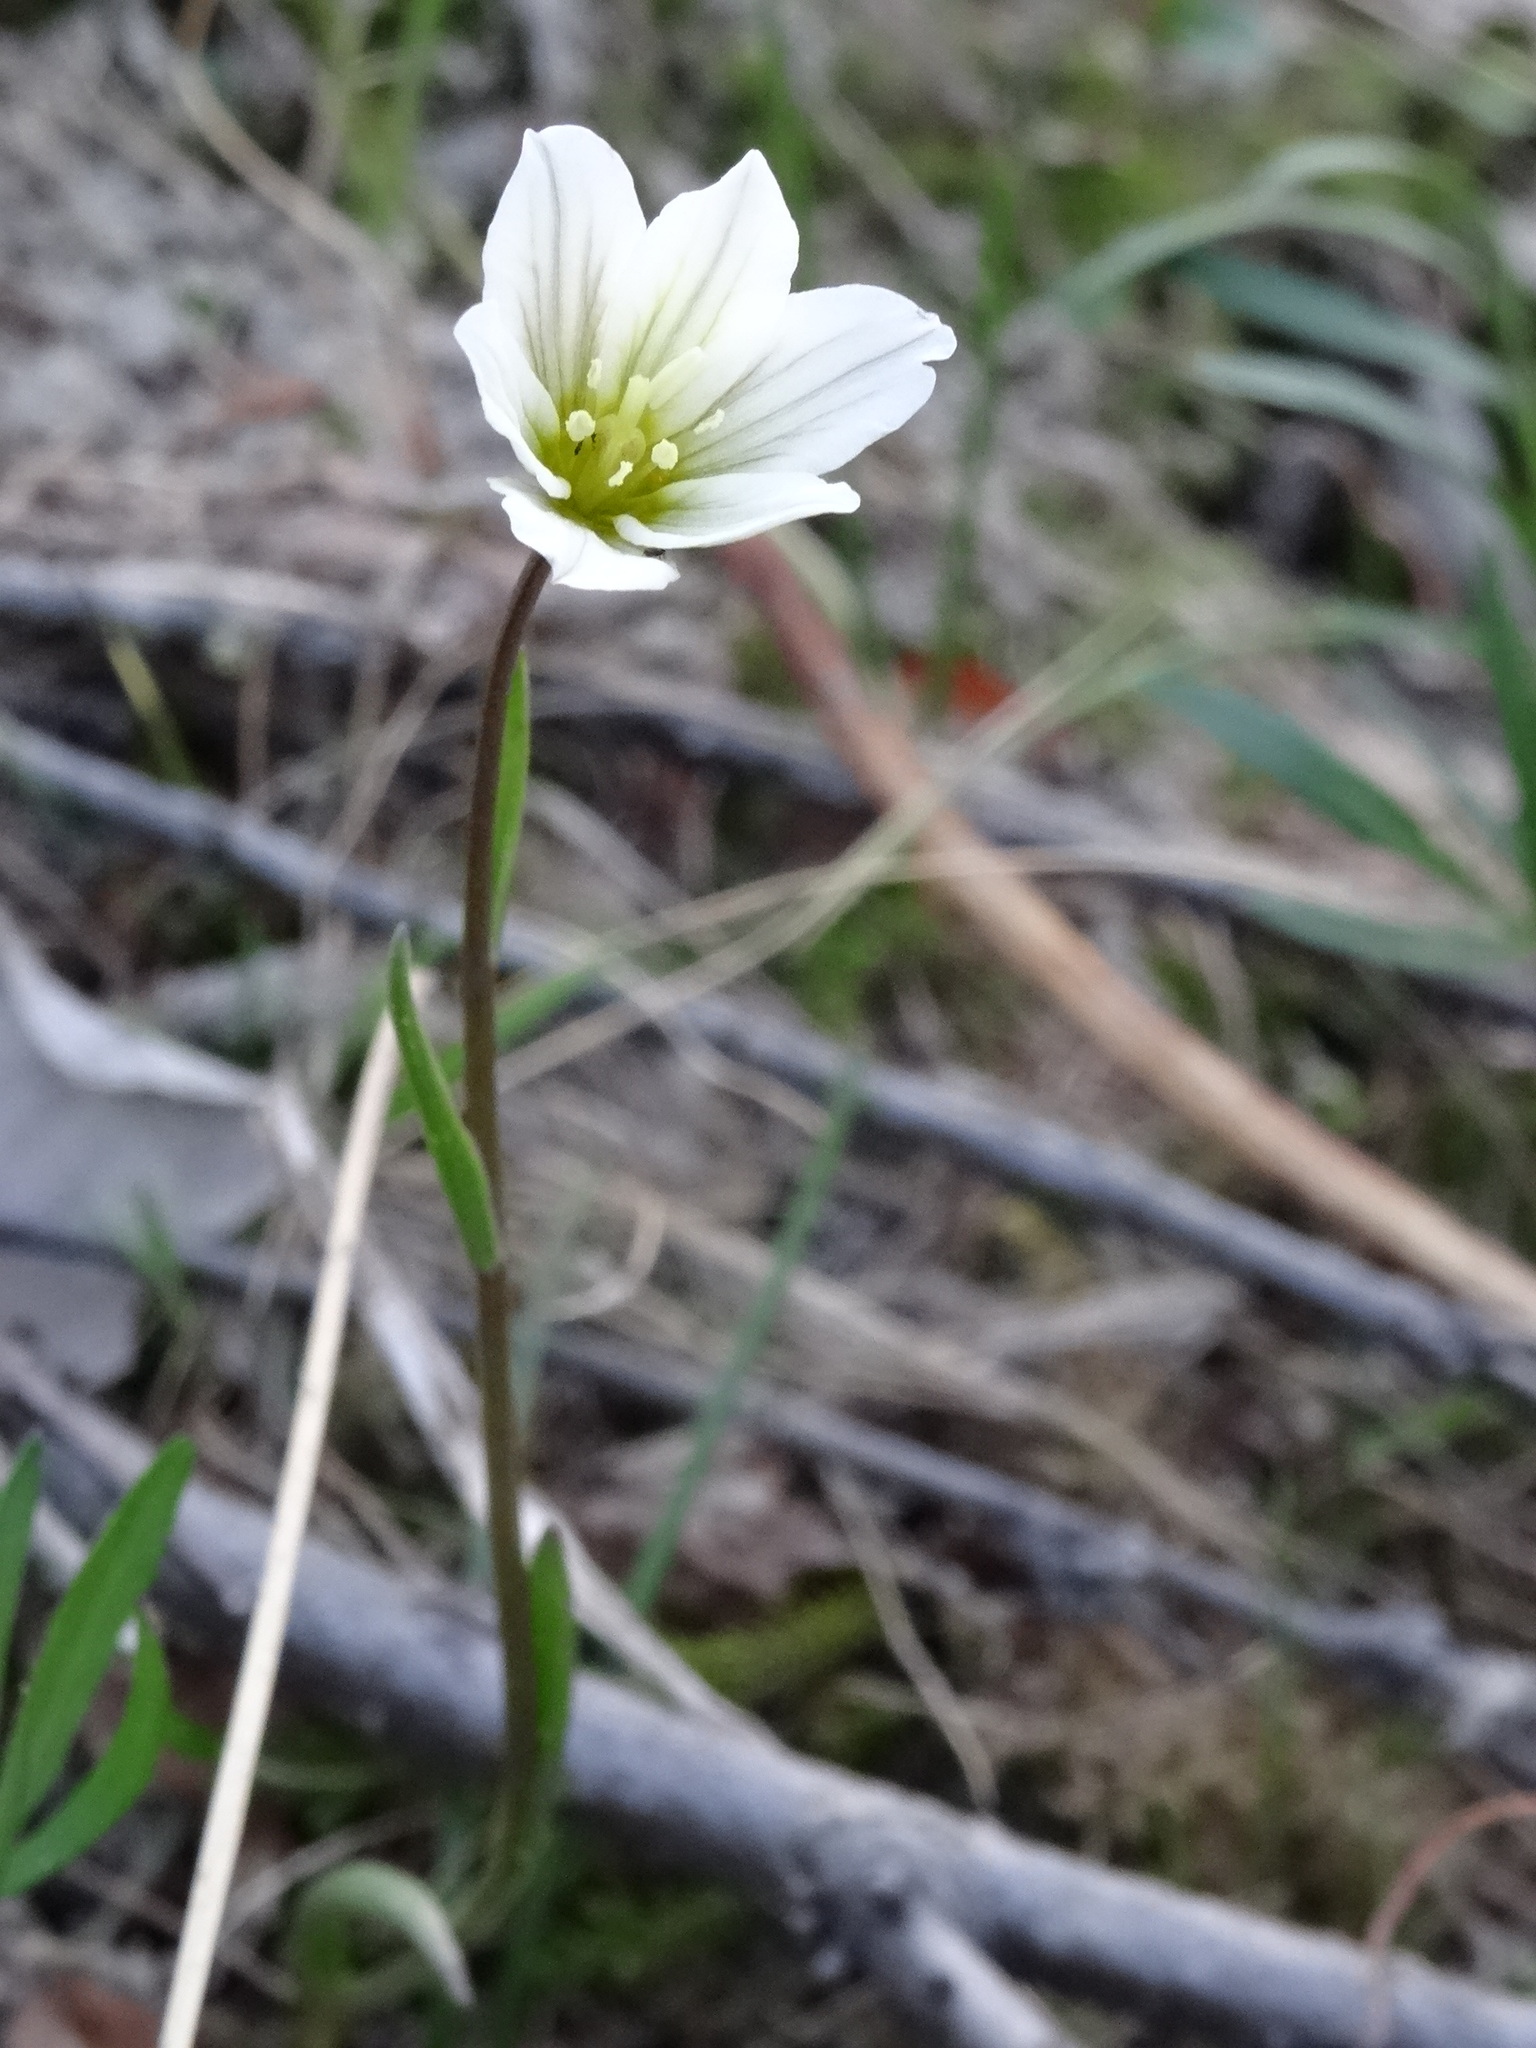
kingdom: Plantae
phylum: Tracheophyta
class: Liliopsida
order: Liliales
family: Liliaceae
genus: Gagea
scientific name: Gagea serotina
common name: Snowdon lily
